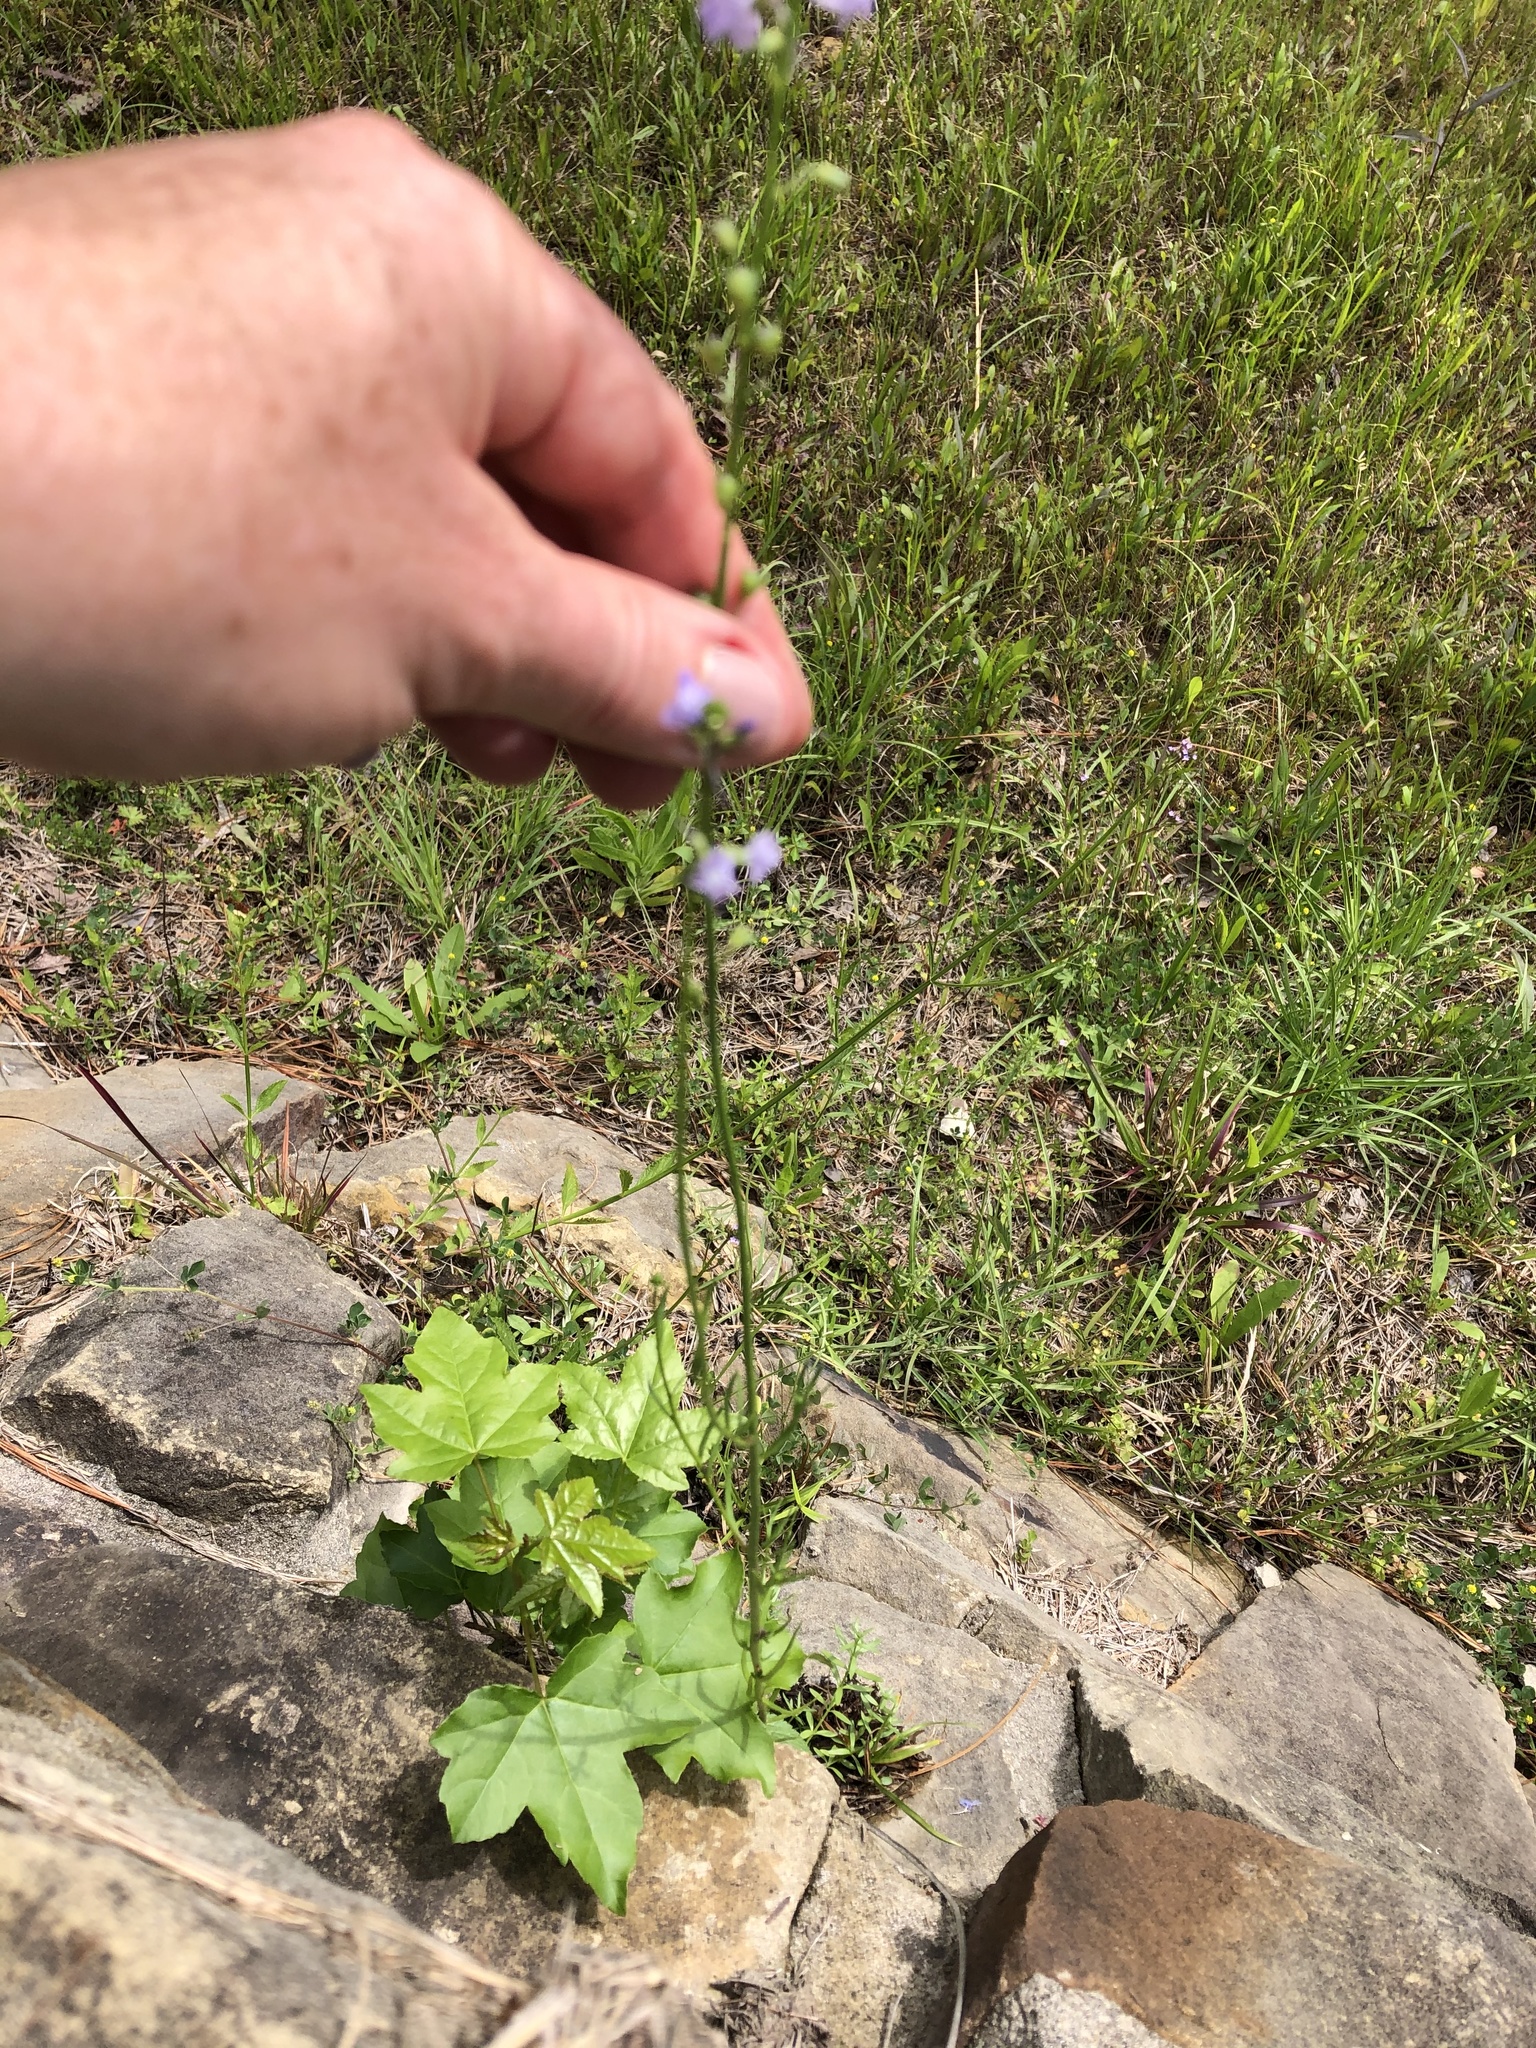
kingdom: Plantae
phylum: Tracheophyta
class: Magnoliopsida
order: Lamiales
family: Plantaginaceae
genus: Nuttallanthus
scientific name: Nuttallanthus texanus
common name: Texas toadflax
